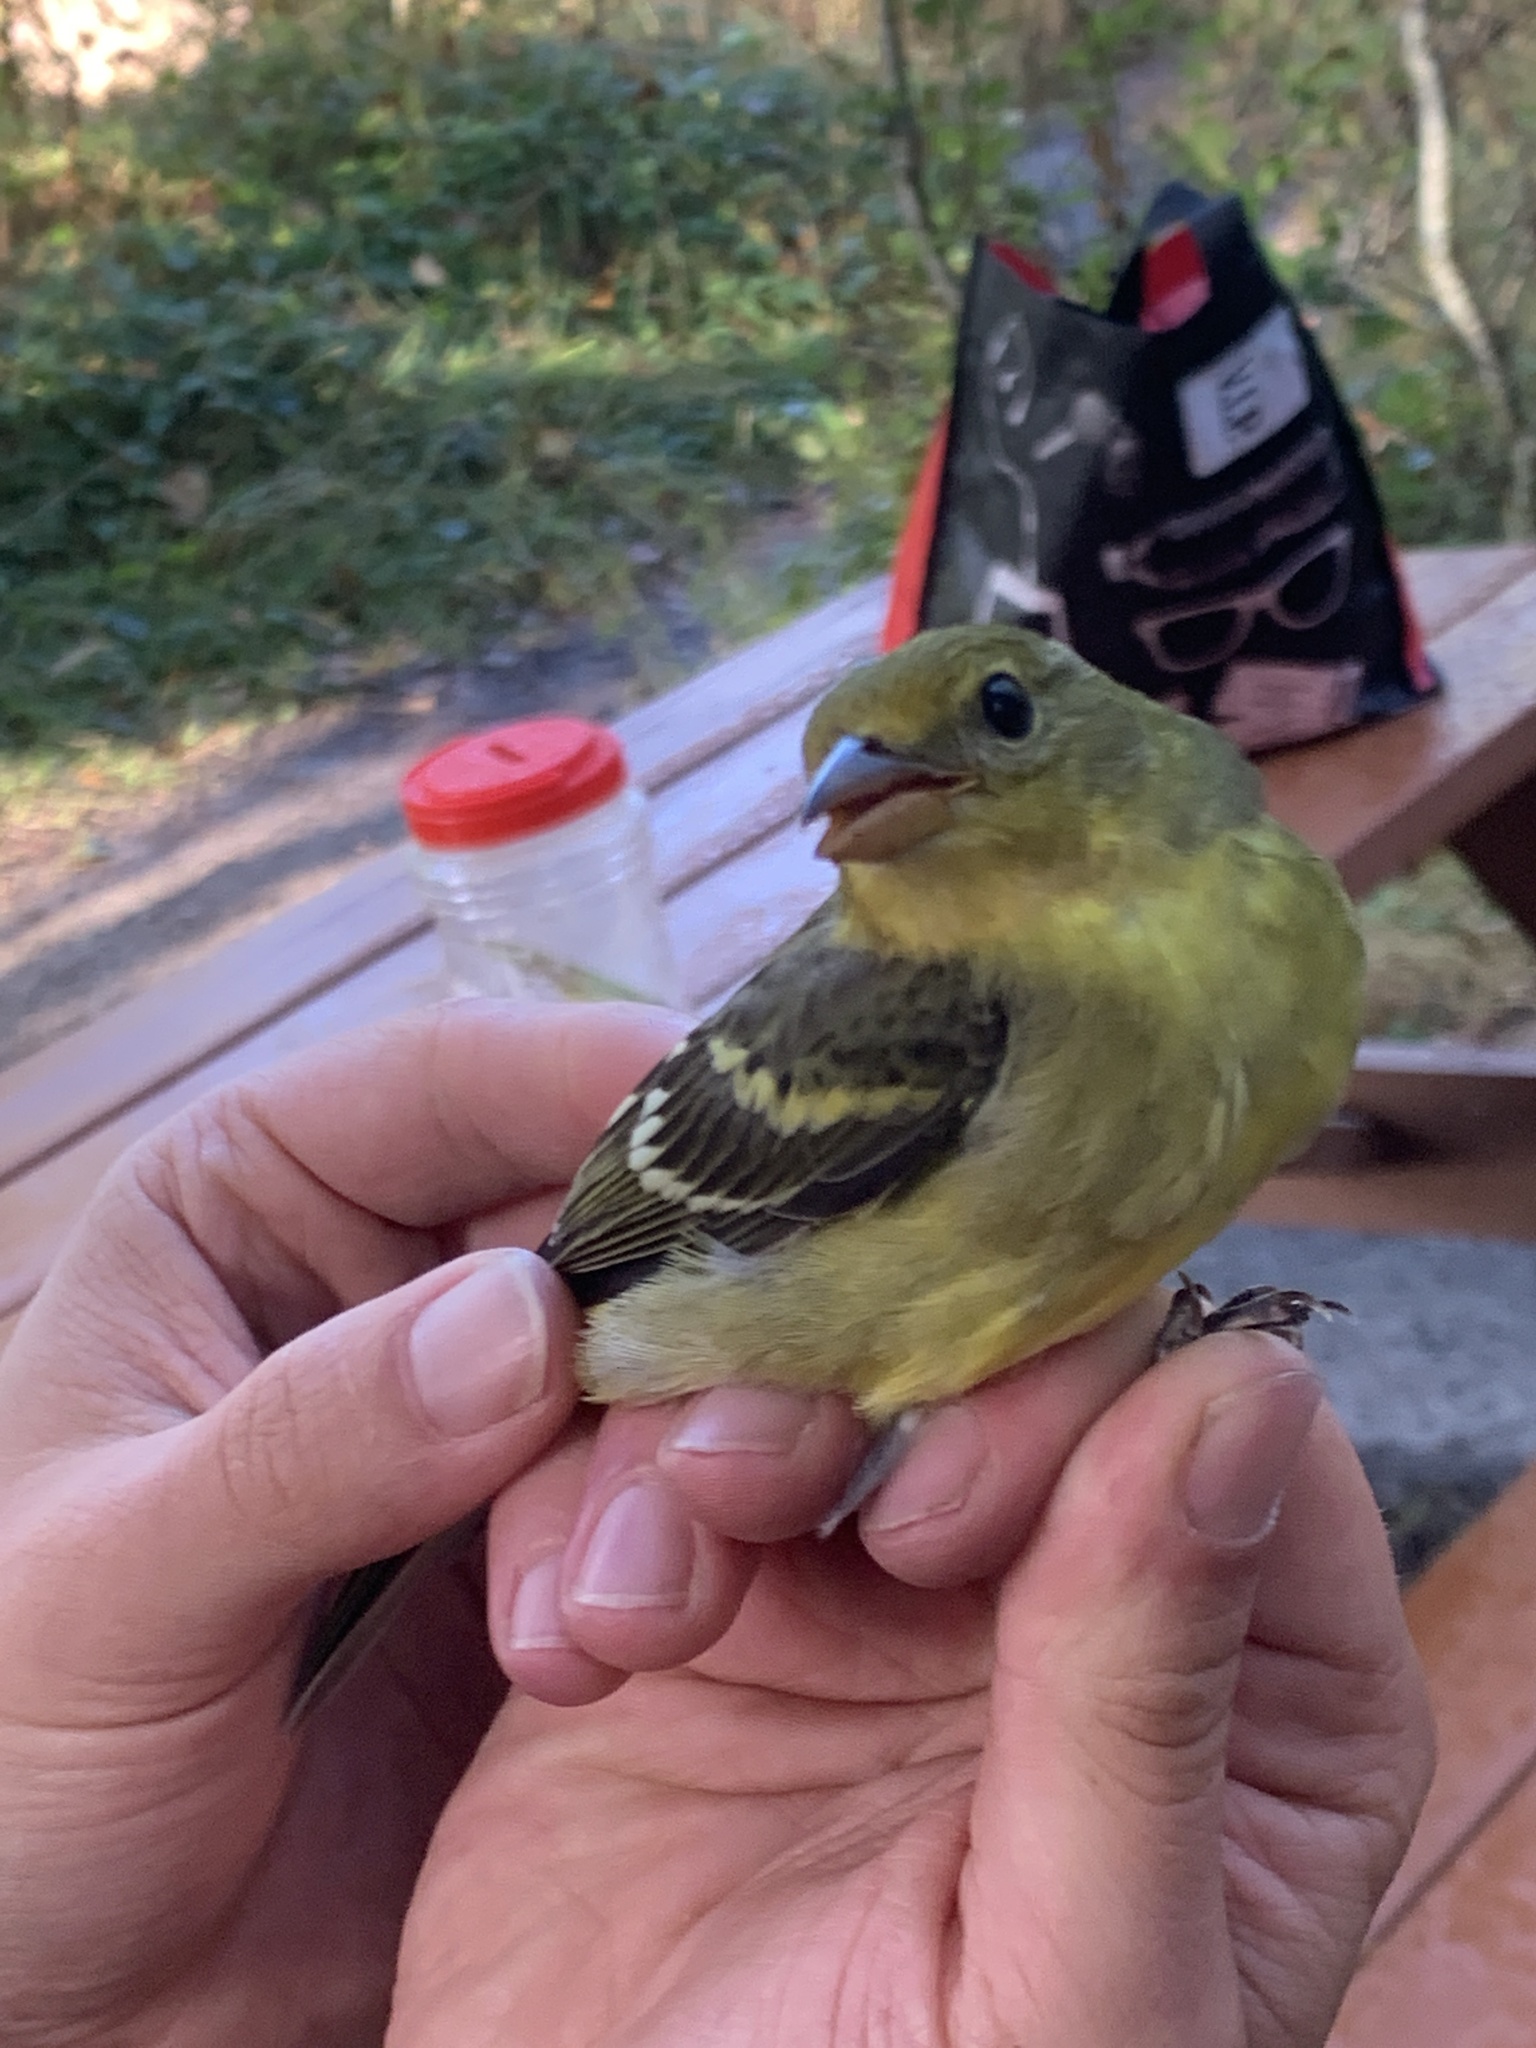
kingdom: Animalia
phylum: Chordata
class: Aves
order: Passeriformes
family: Cardinalidae
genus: Piranga
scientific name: Piranga ludoviciana
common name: Western tanager
